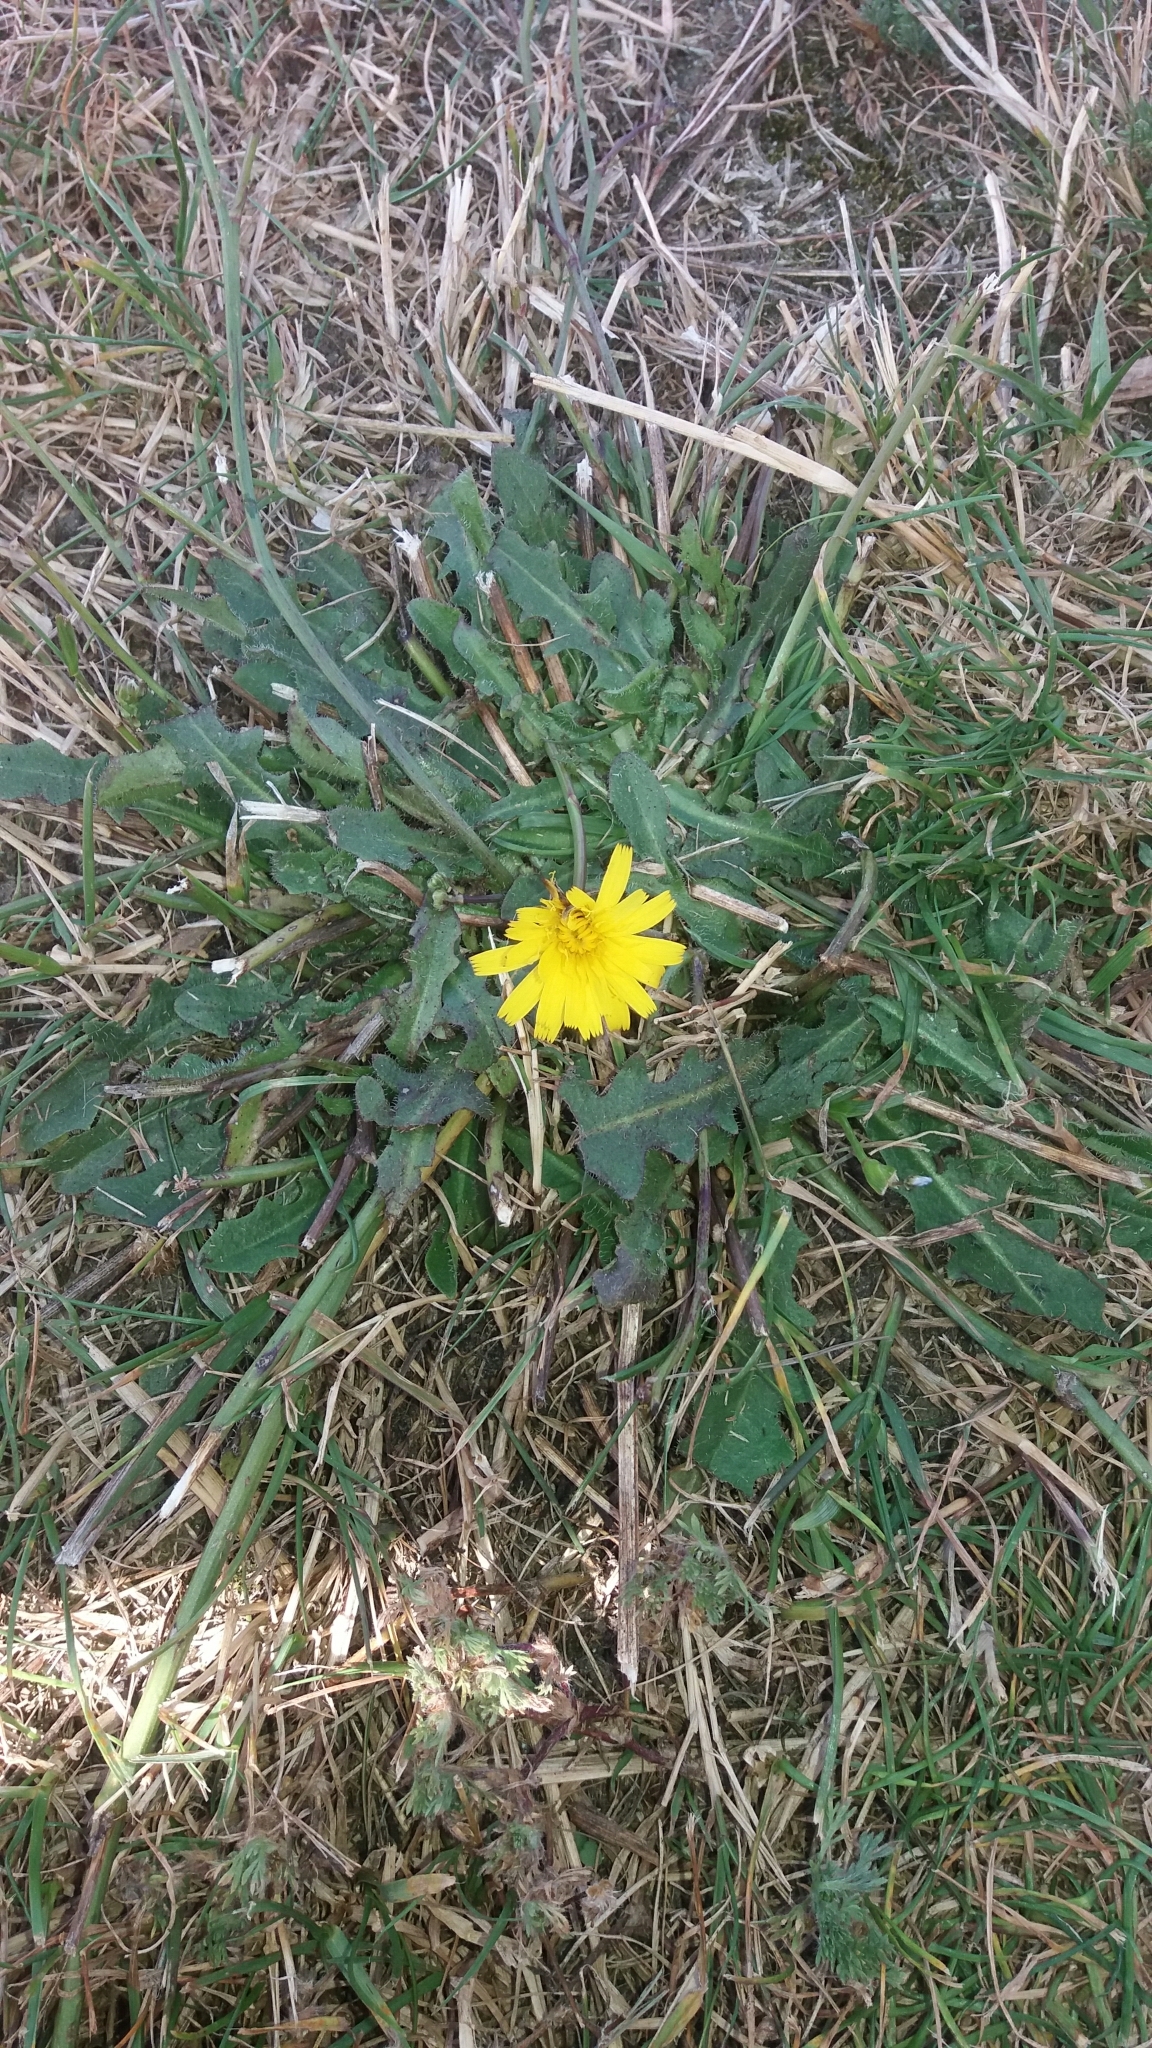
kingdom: Plantae
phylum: Tracheophyta
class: Magnoliopsida
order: Asterales
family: Asteraceae
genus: Taraxacum
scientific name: Taraxacum officinale
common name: Common dandelion
